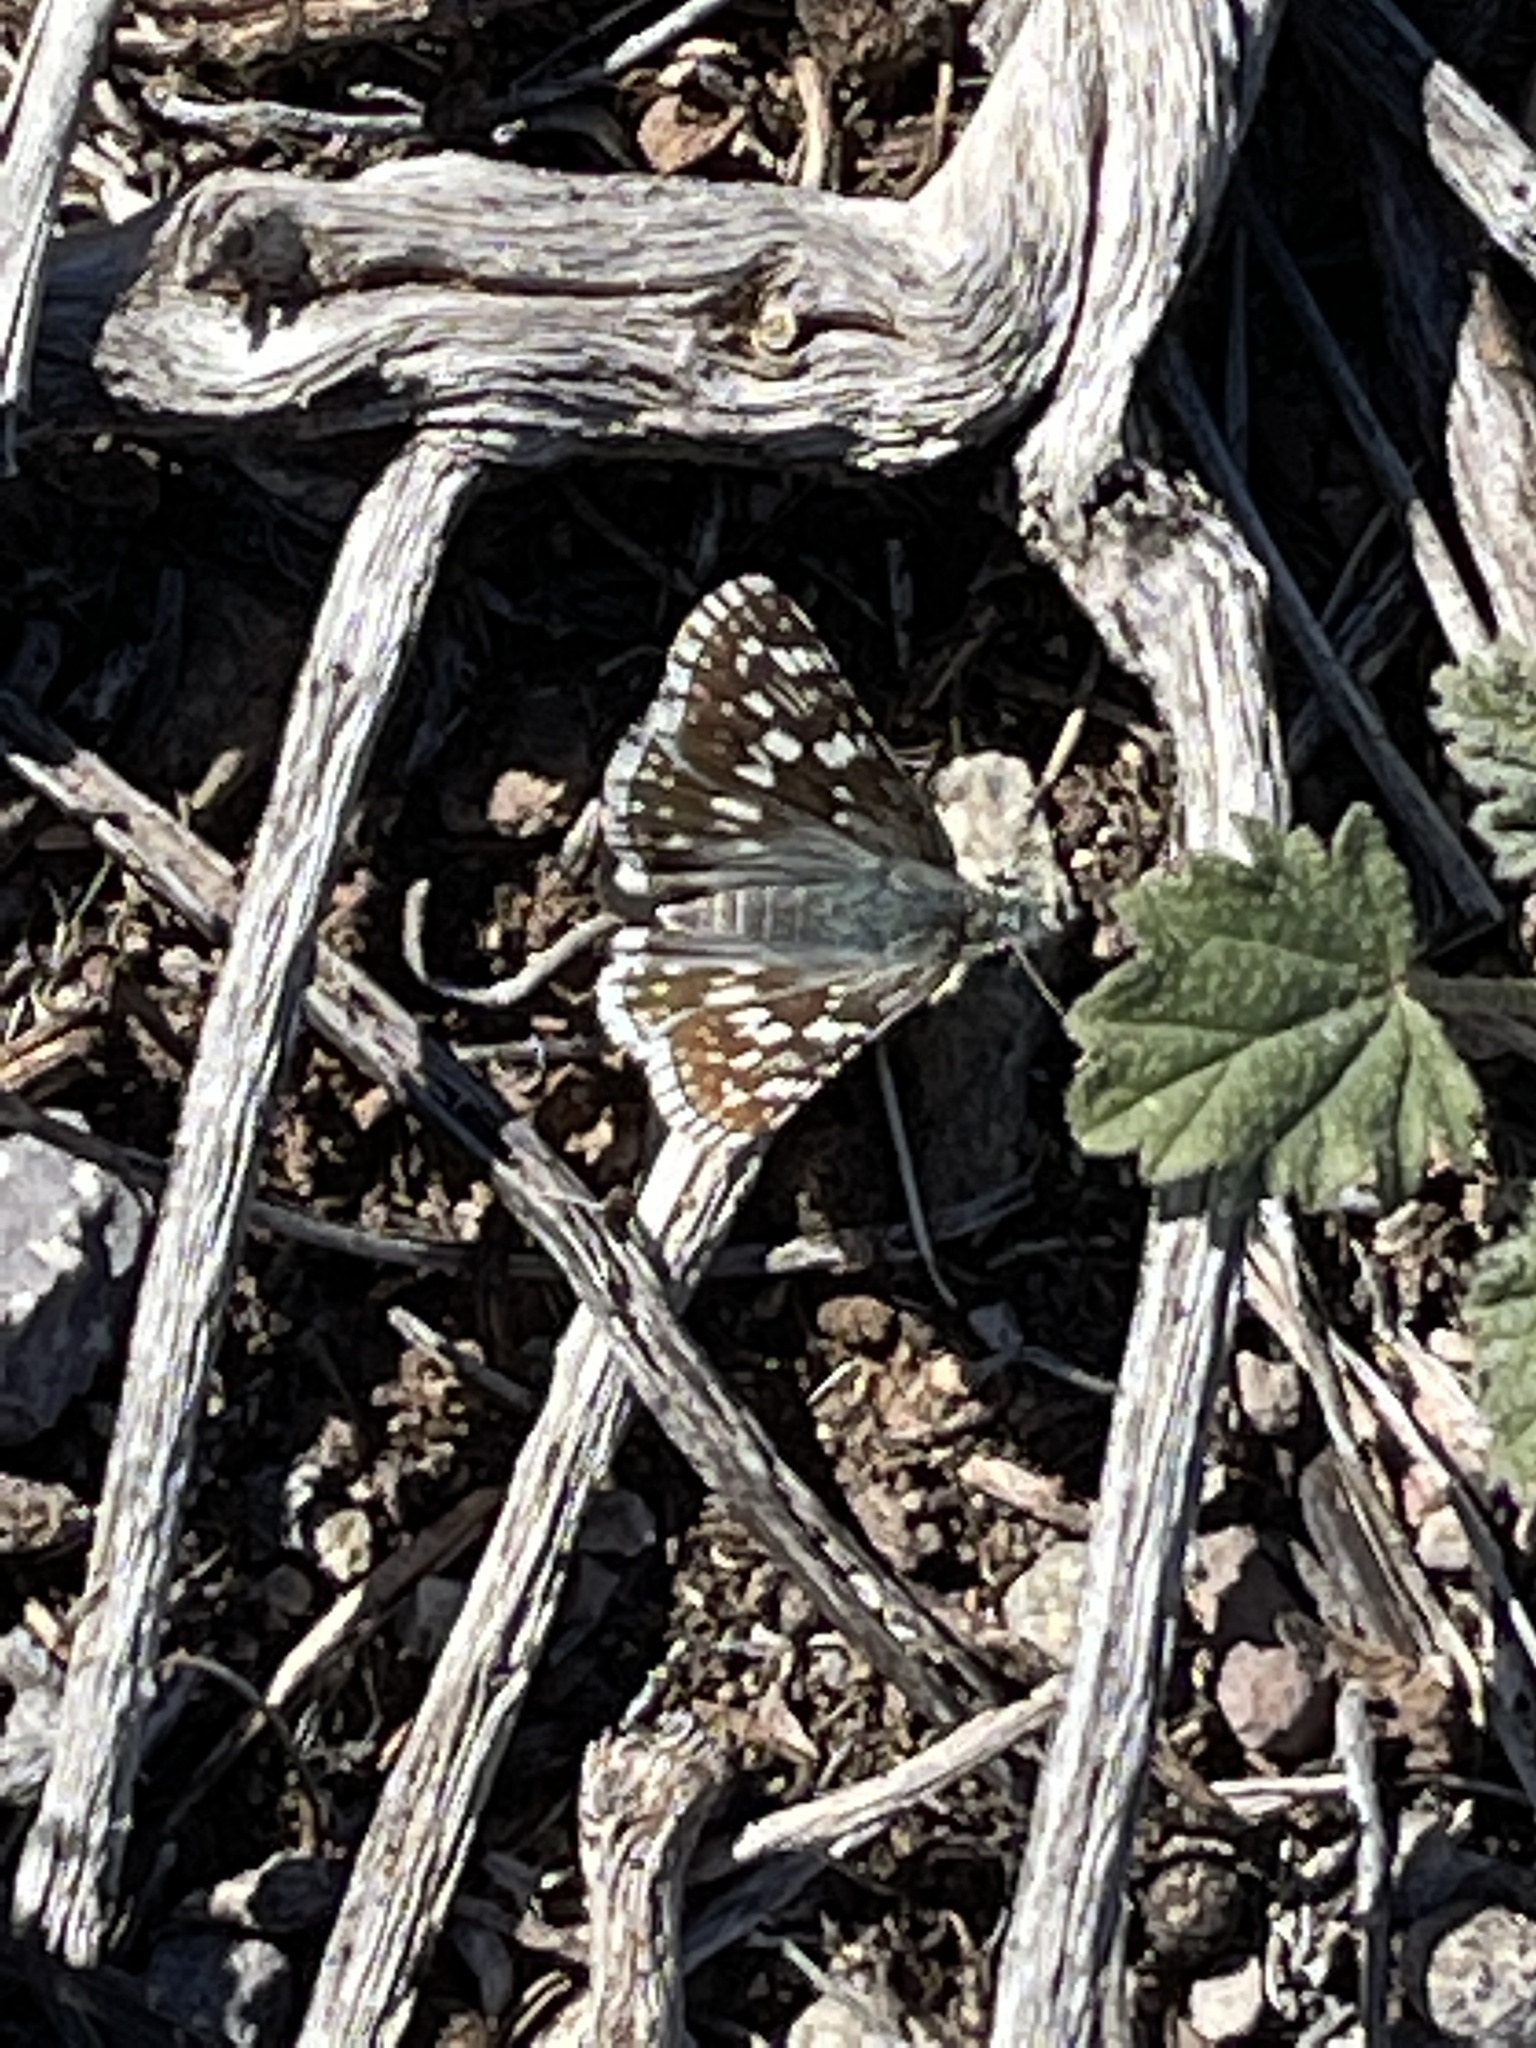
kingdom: Animalia
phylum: Arthropoda
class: Insecta
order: Lepidoptera
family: Hesperiidae
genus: Burnsius
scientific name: Burnsius communis
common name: Common checkered-skipper
